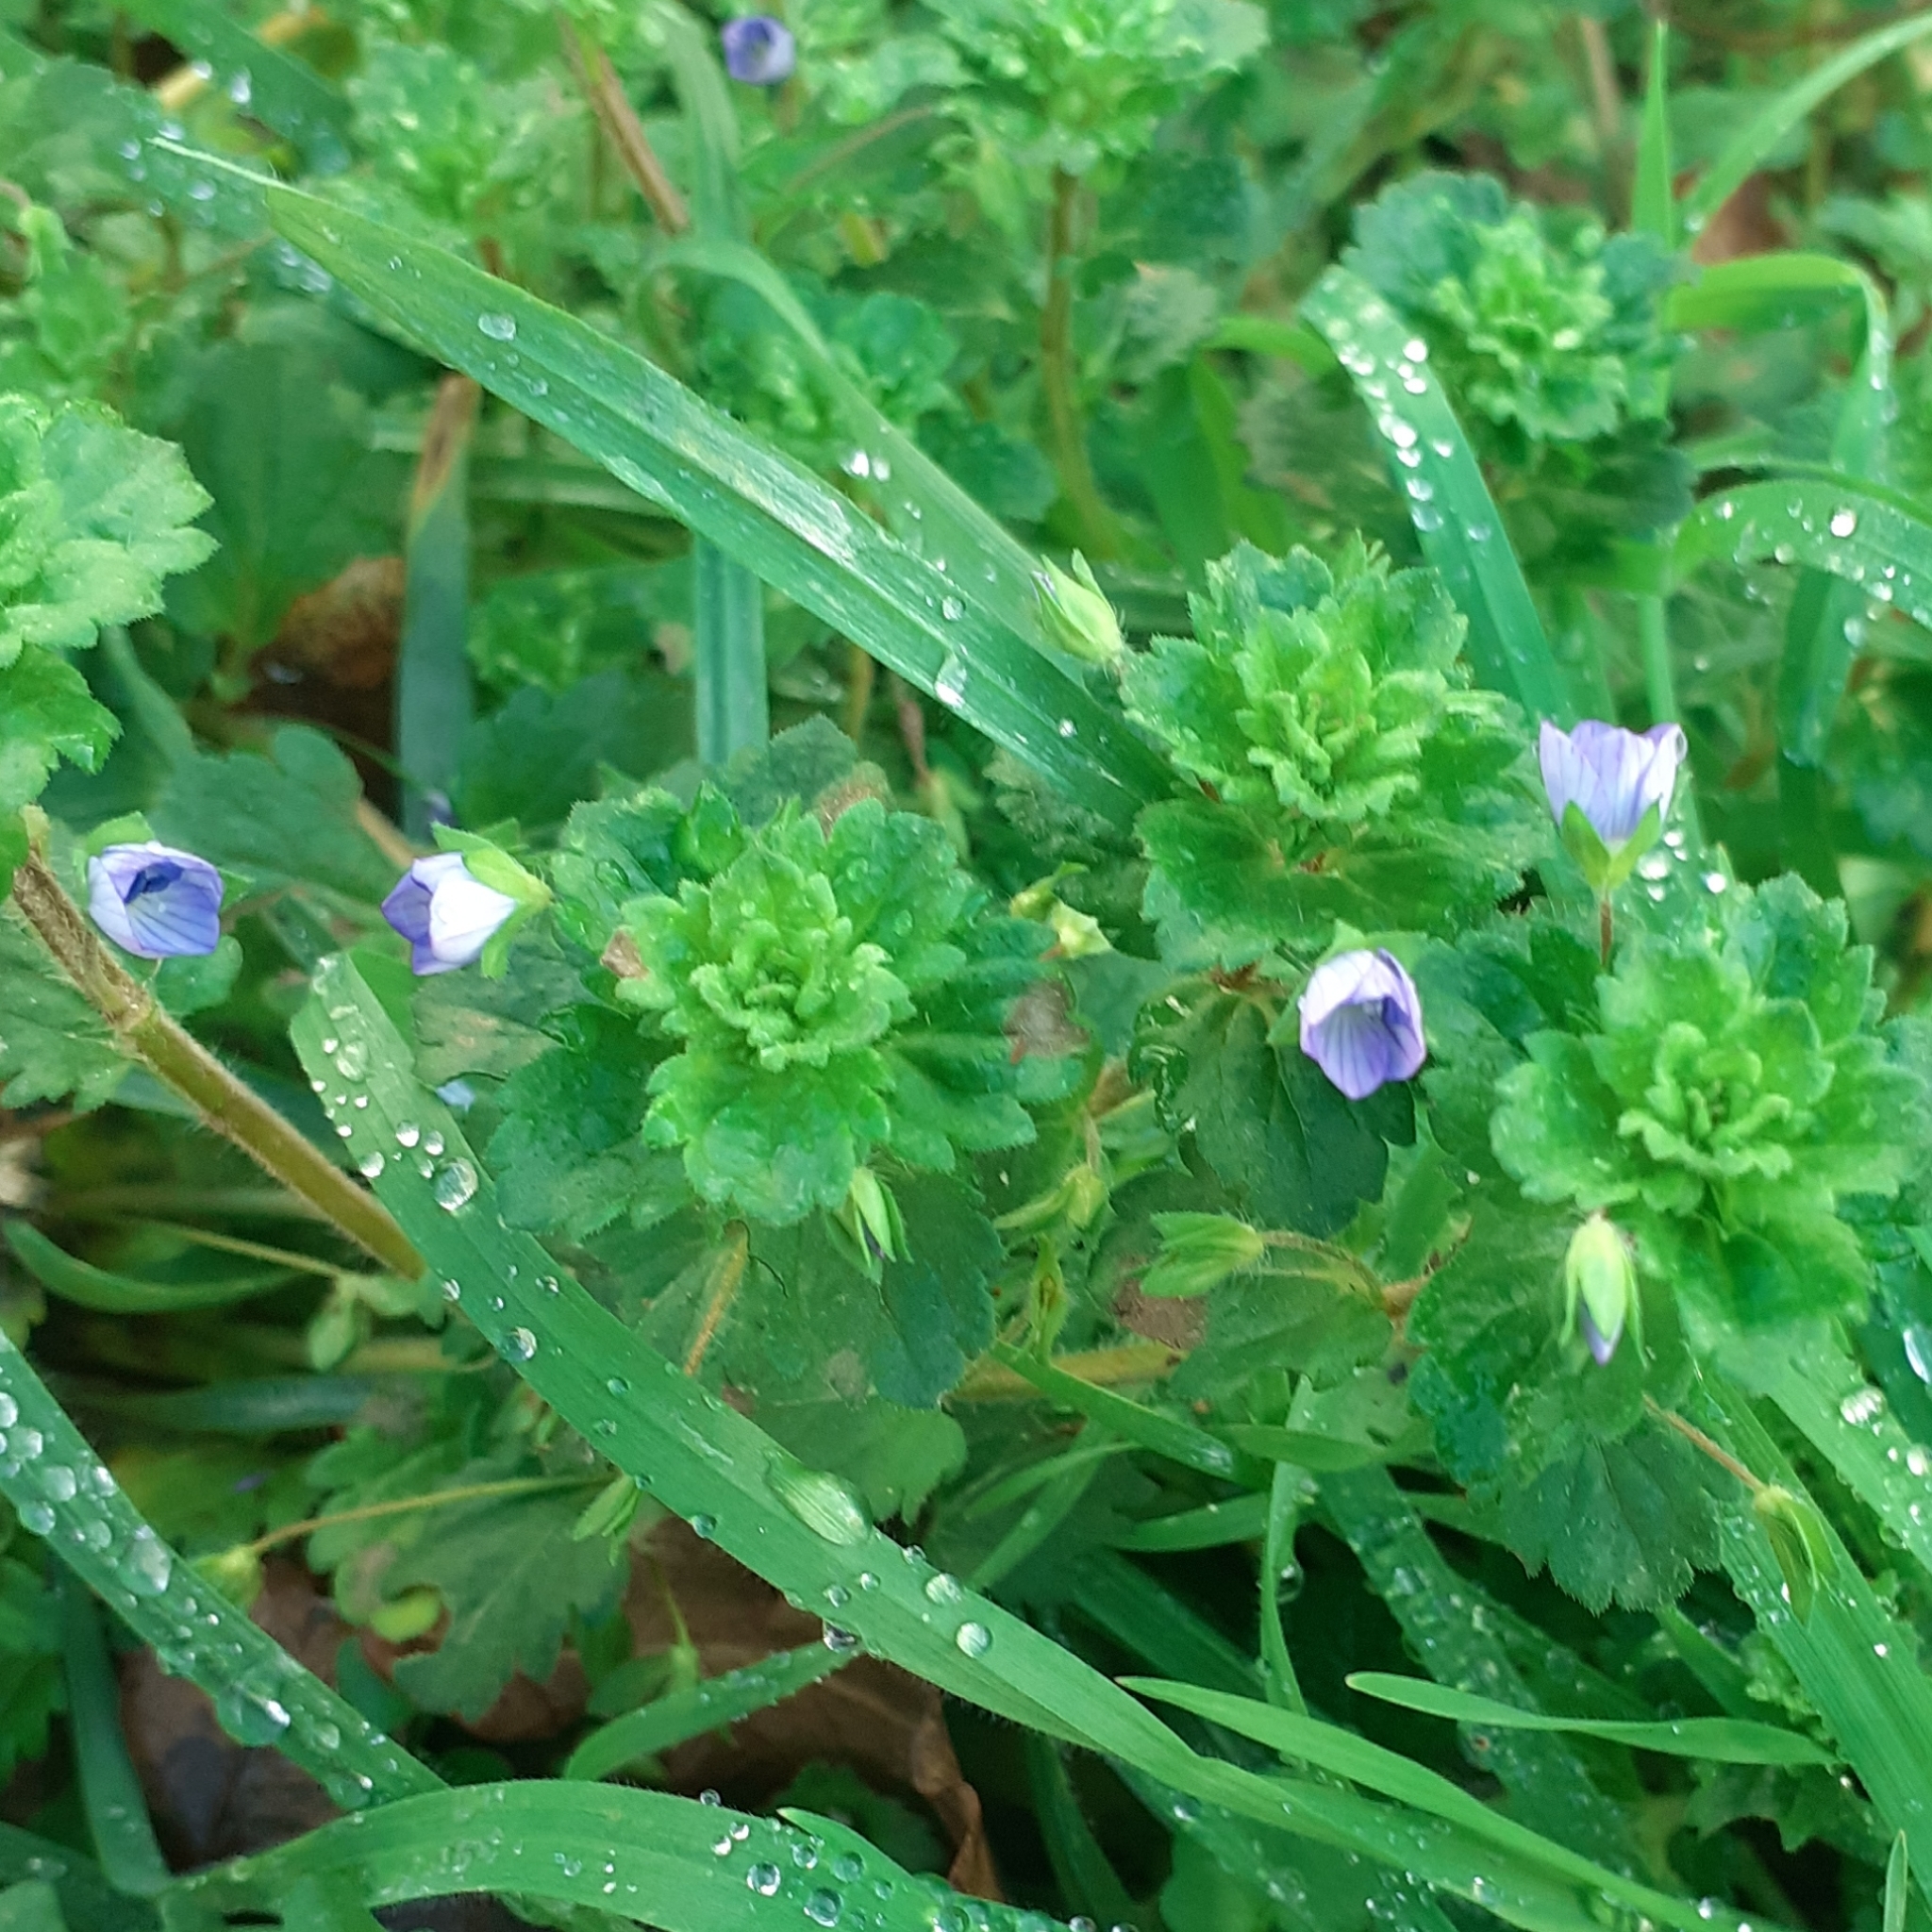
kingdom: Plantae
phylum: Tracheophyta
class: Magnoliopsida
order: Lamiales
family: Plantaginaceae
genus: Veronica
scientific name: Veronica persica
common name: Common field-speedwell
